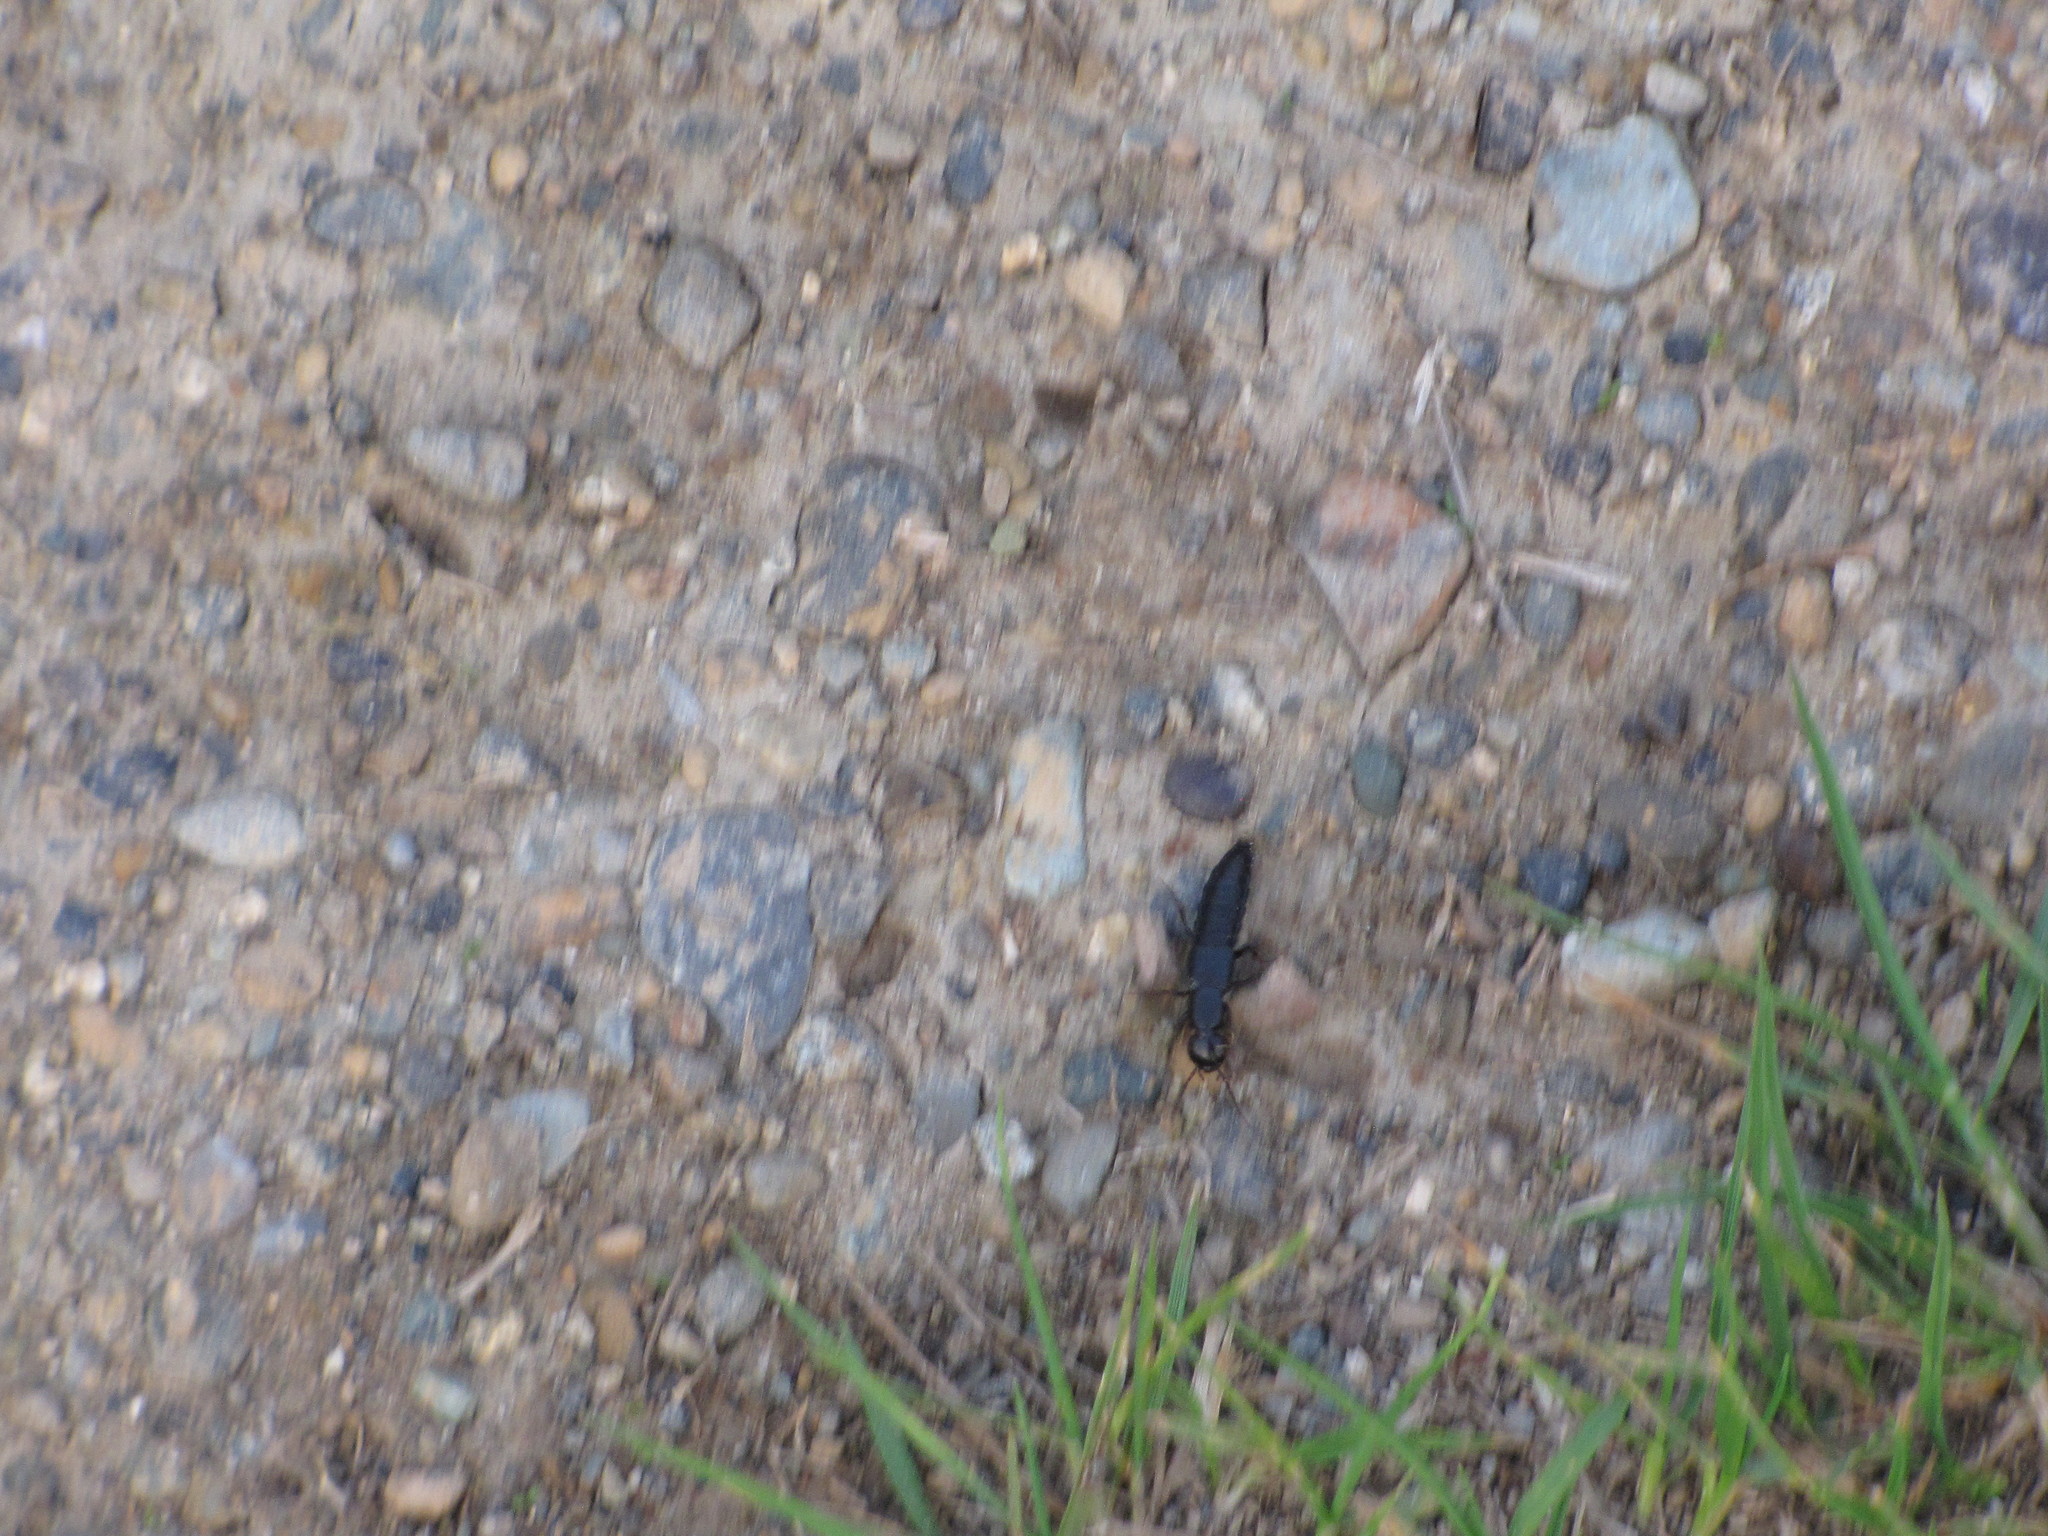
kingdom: Animalia
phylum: Arthropoda
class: Insecta
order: Coleoptera
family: Staphylinidae
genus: Ocypus
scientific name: Ocypus olens
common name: Devil's coach-horse
